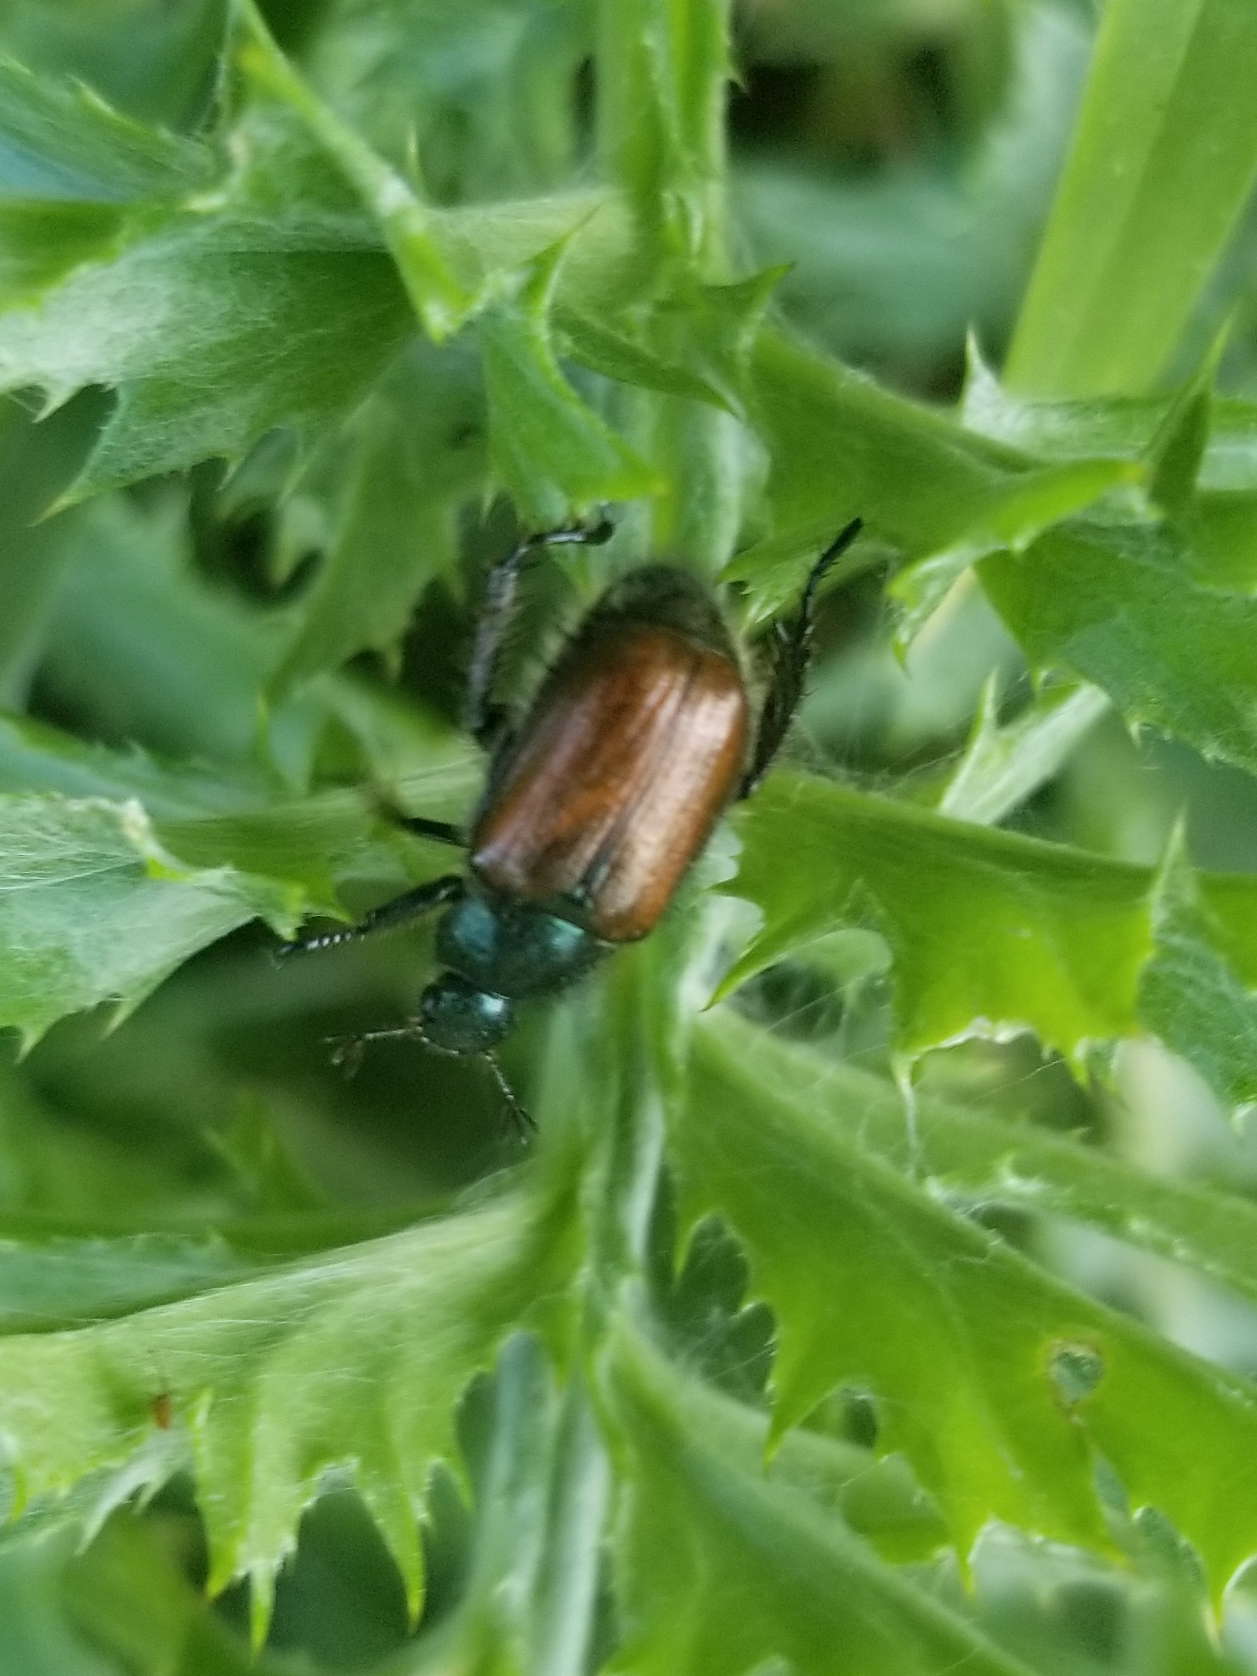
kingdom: Animalia
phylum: Arthropoda
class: Insecta
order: Coleoptera
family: Scarabaeidae
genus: Phyllopertha
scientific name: Phyllopertha horticola
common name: Garden chafer
